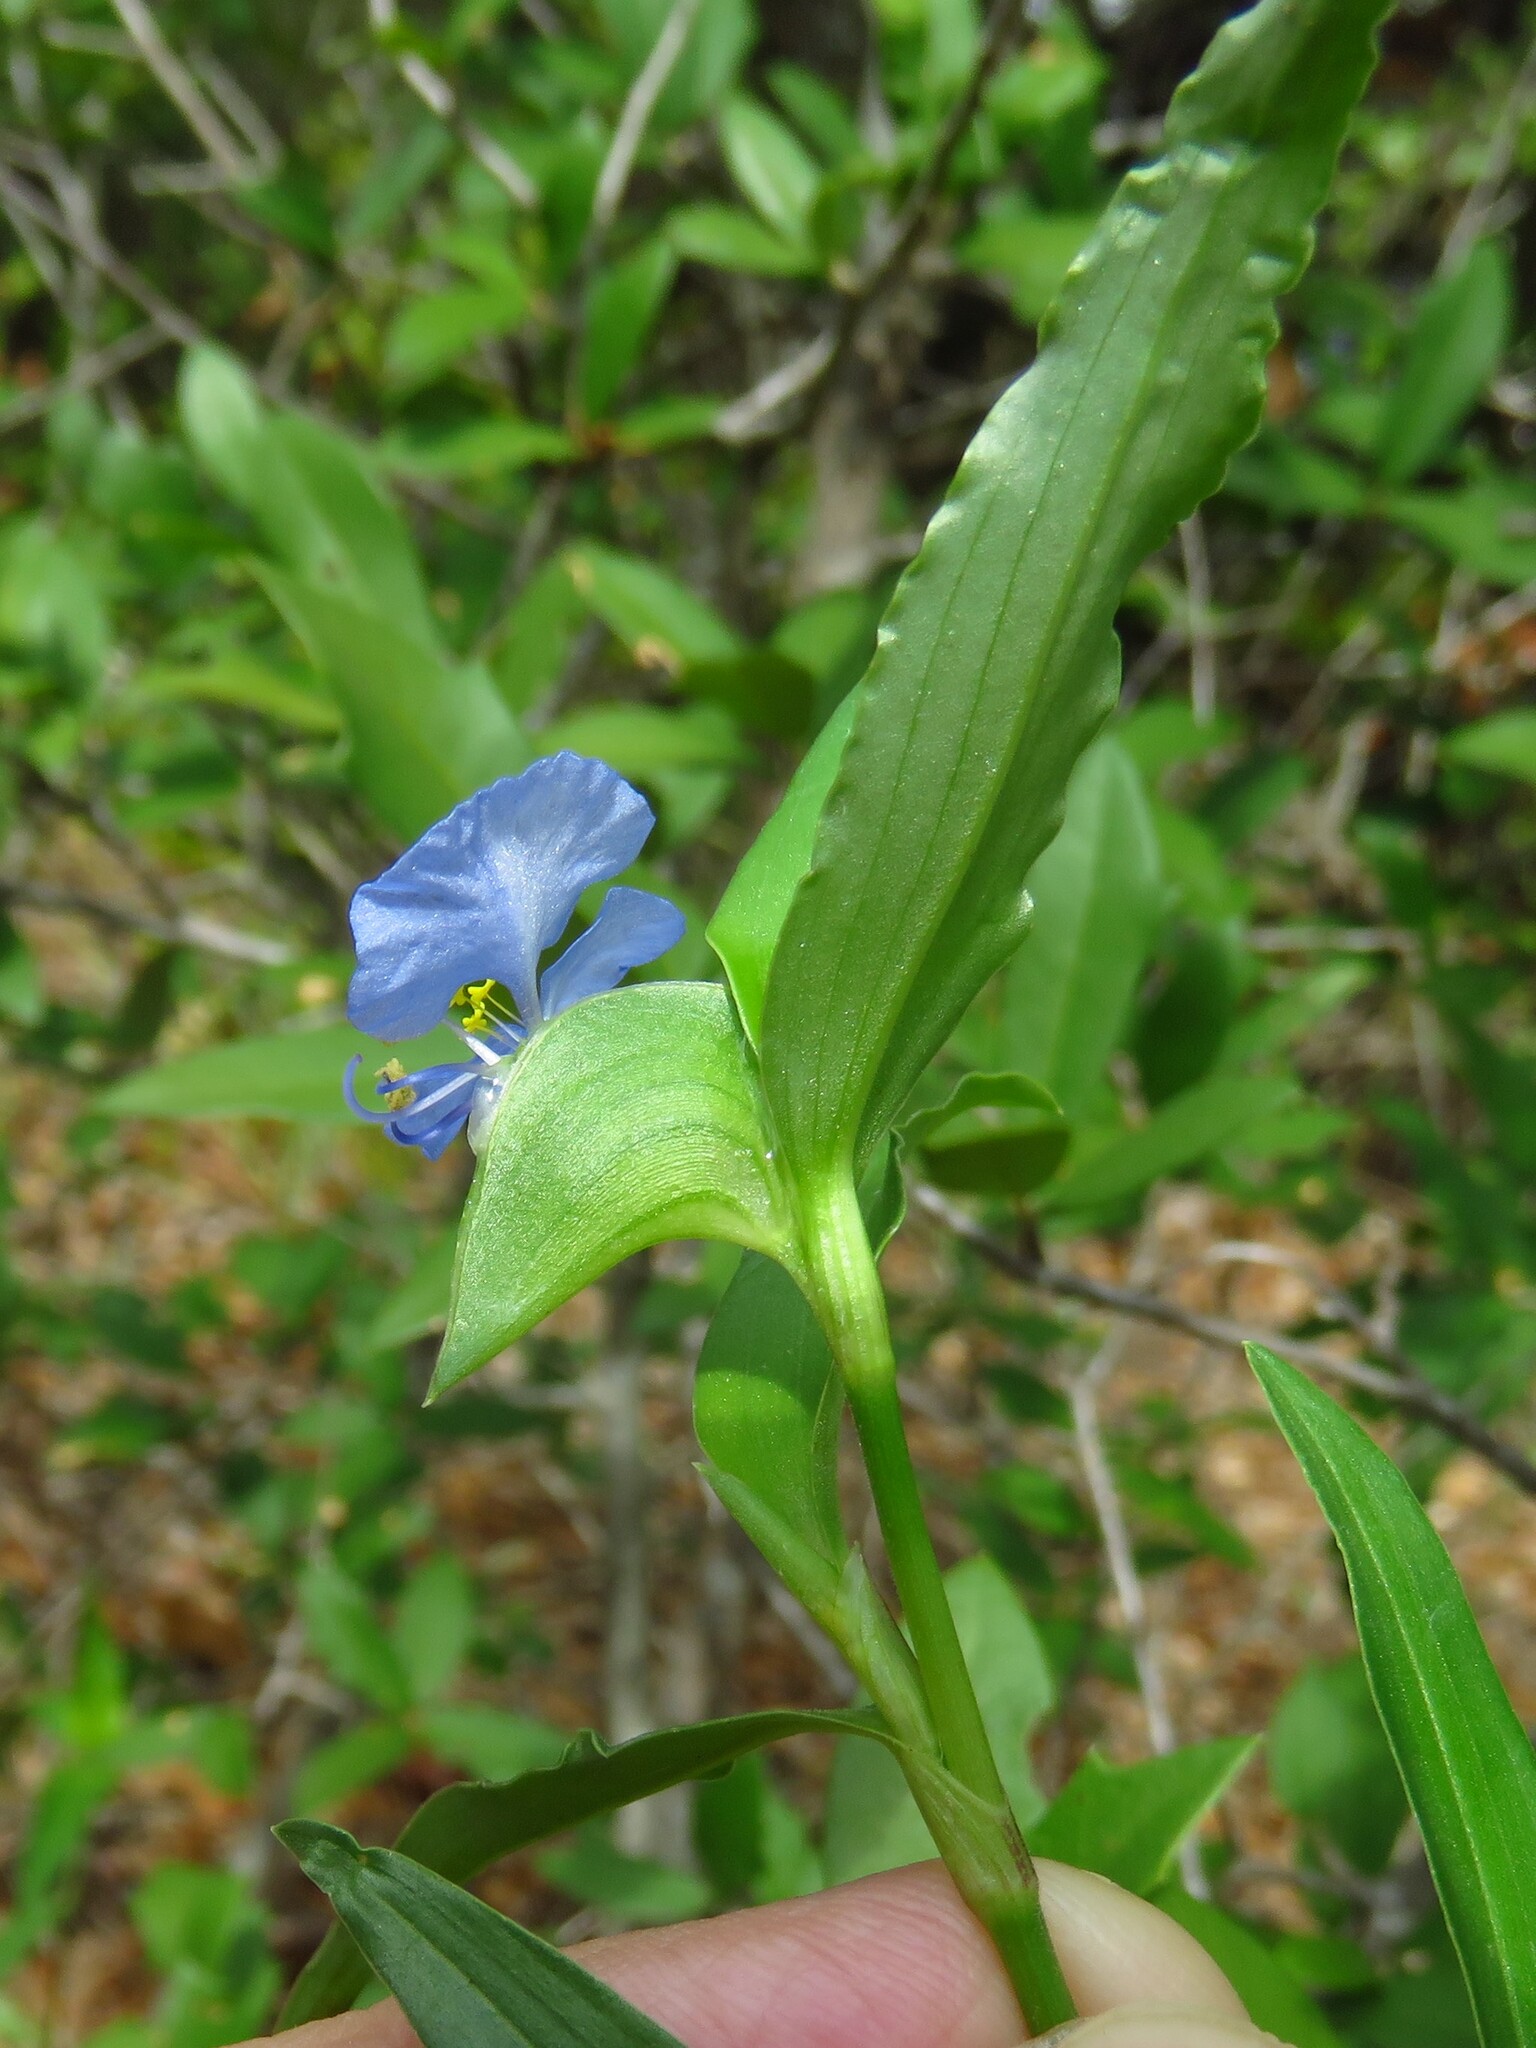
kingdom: Plantae
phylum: Tracheophyta
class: Liliopsida
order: Commelinales
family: Commelinaceae
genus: Commelina
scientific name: Commelina erecta
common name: Blousel blommetjie
